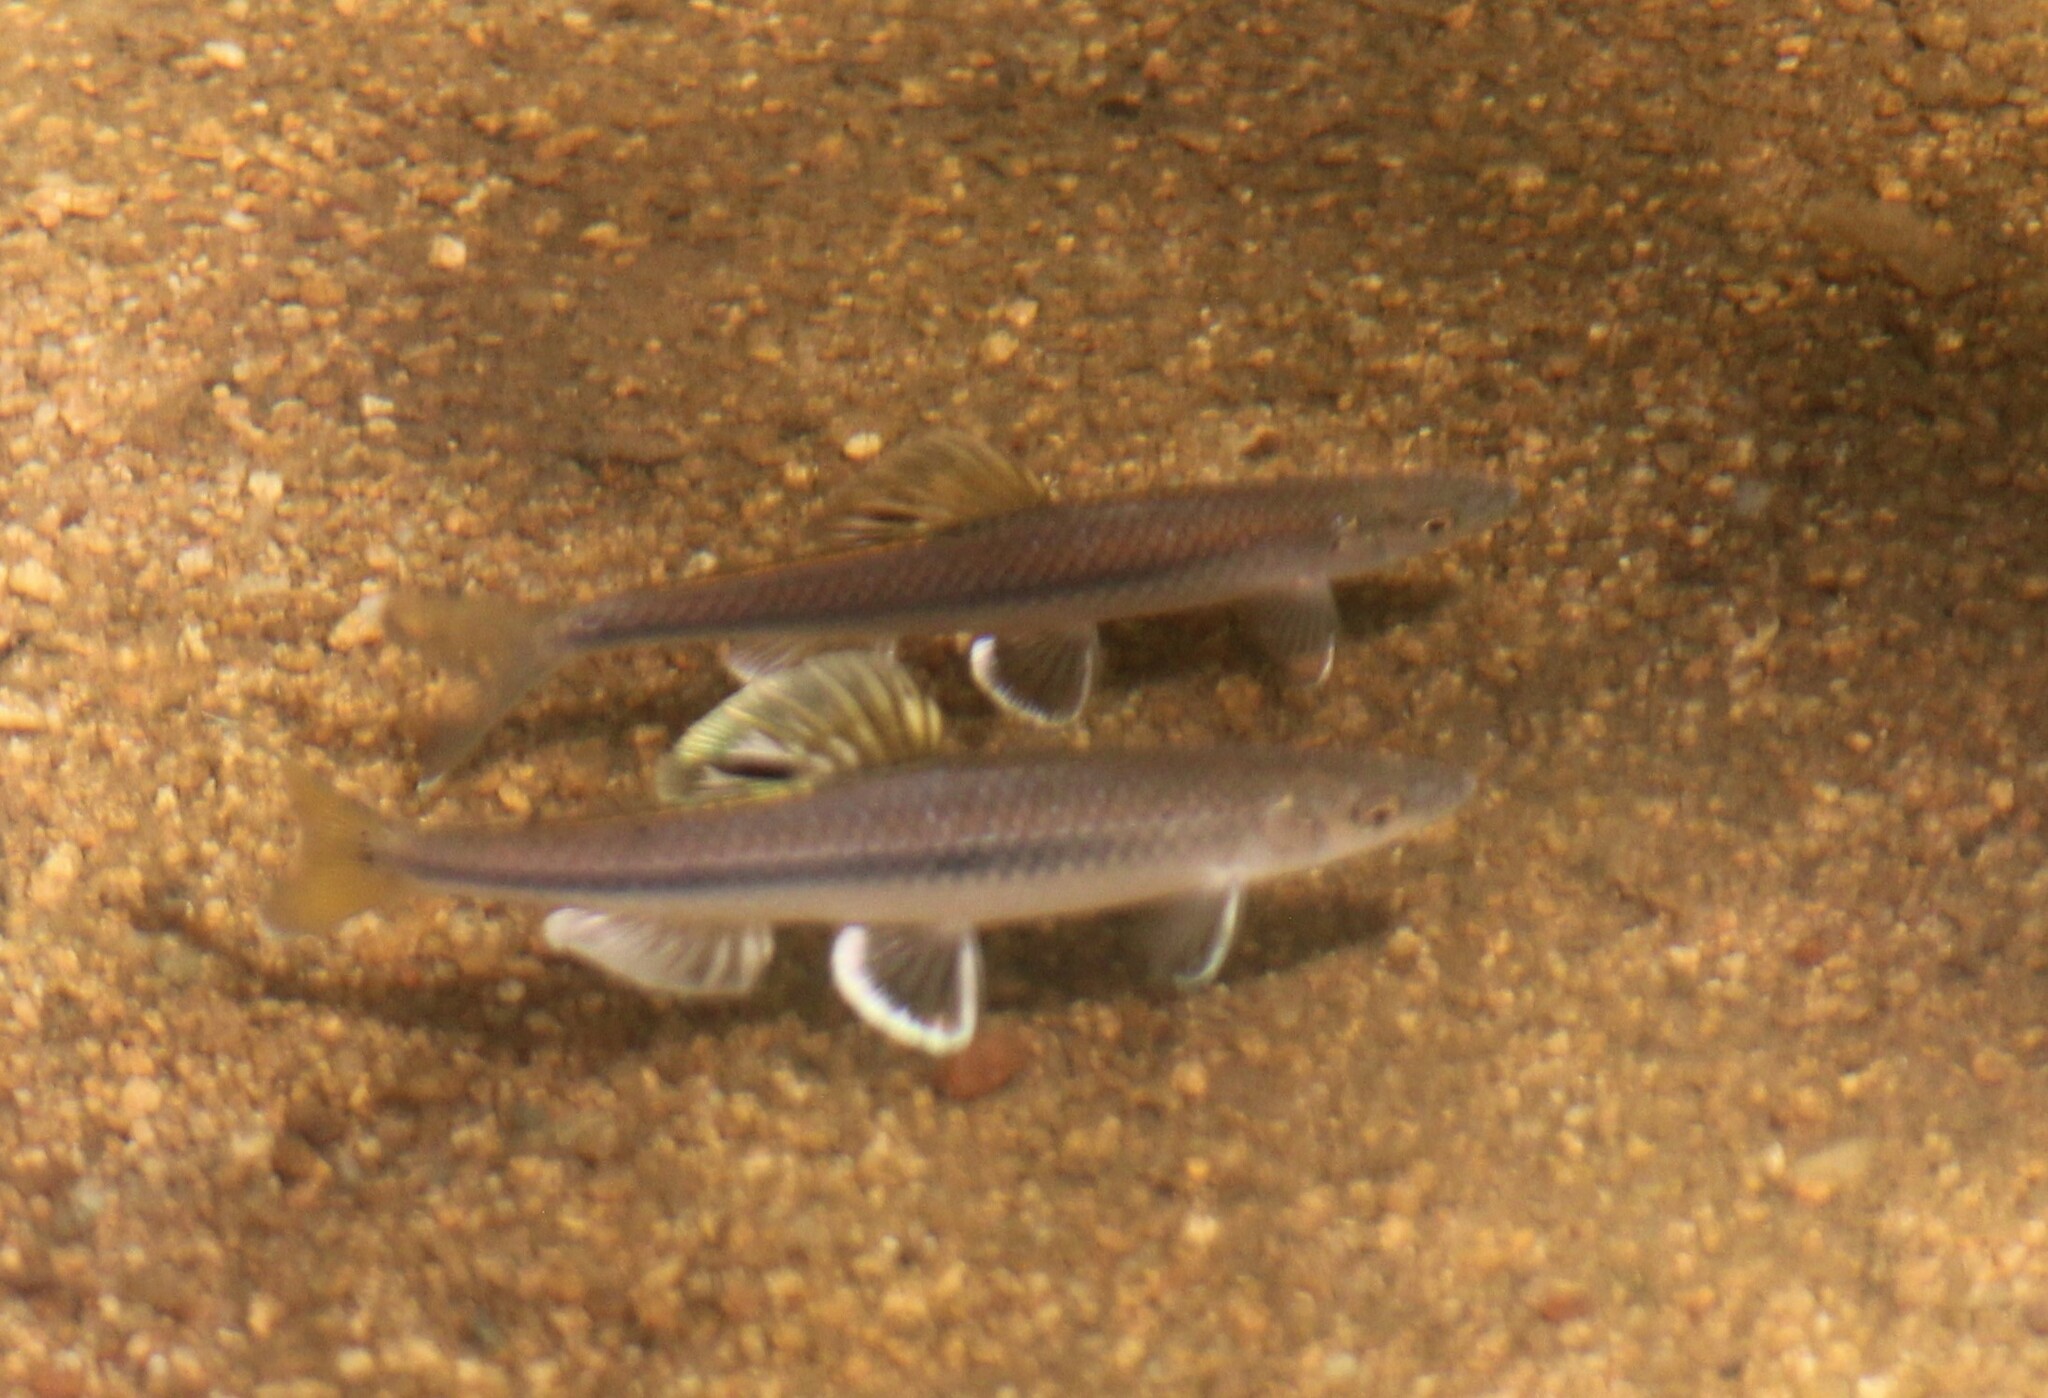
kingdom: Animalia
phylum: Chordata
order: Cypriniformes
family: Cyprinidae
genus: Cyprinella
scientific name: Cyprinella analostana
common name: Satinfin shiner
